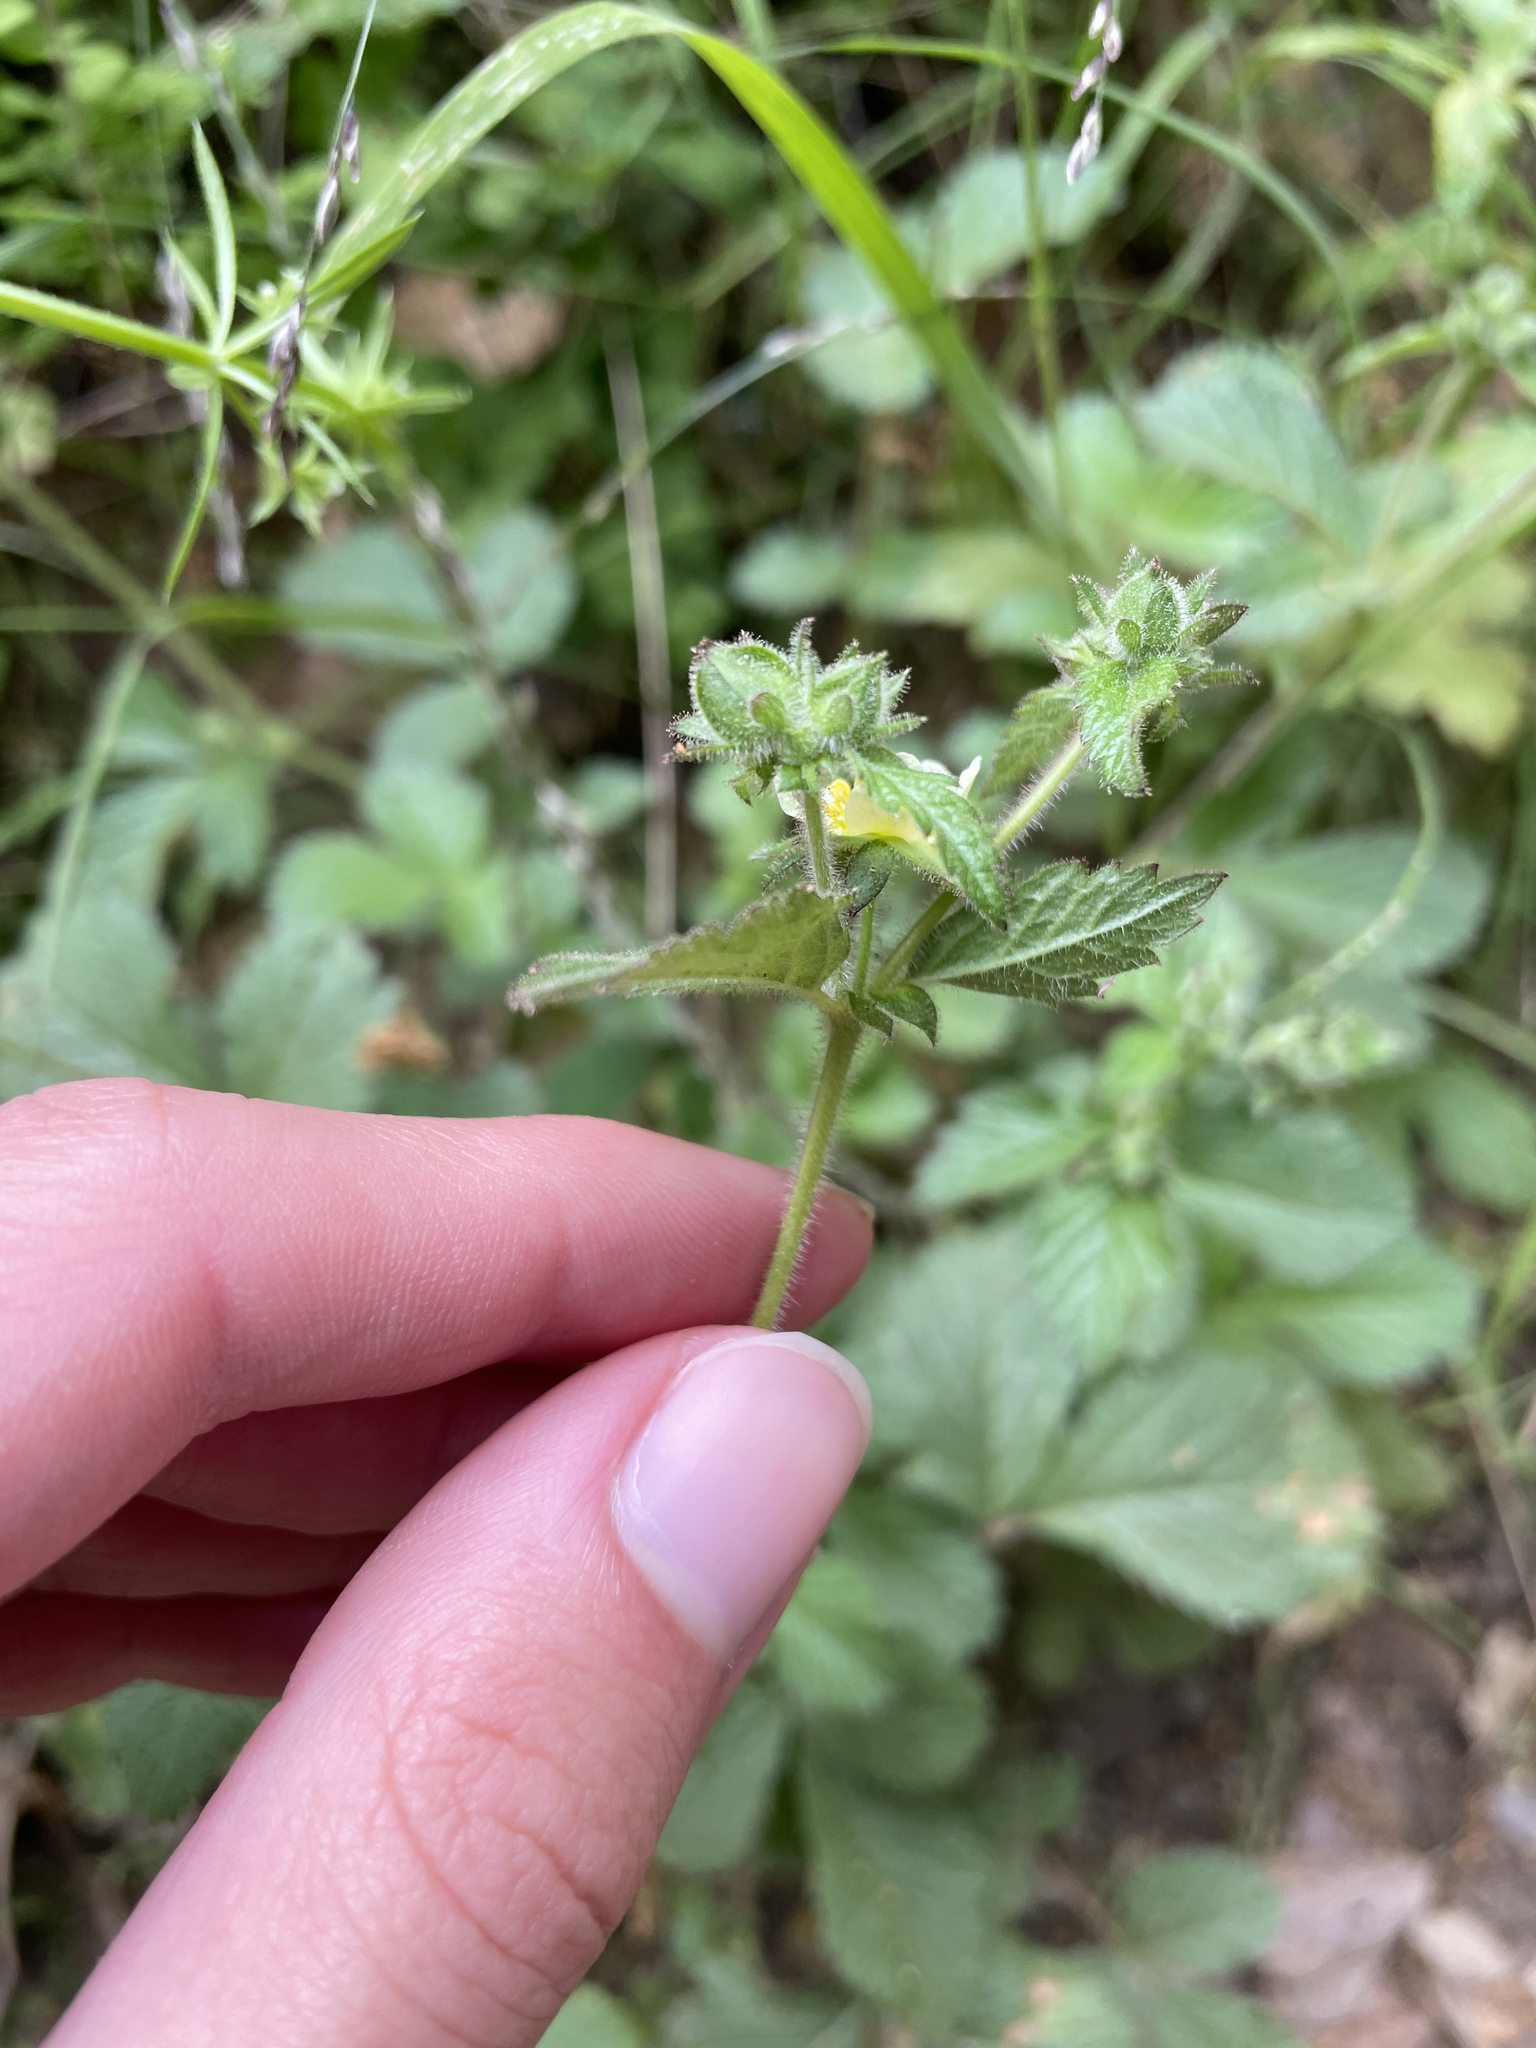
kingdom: Plantae
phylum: Tracheophyta
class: Magnoliopsida
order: Rosales
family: Rosaceae
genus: Drymocallis
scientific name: Drymocallis glandulosa
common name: Sticky cinquefoil
